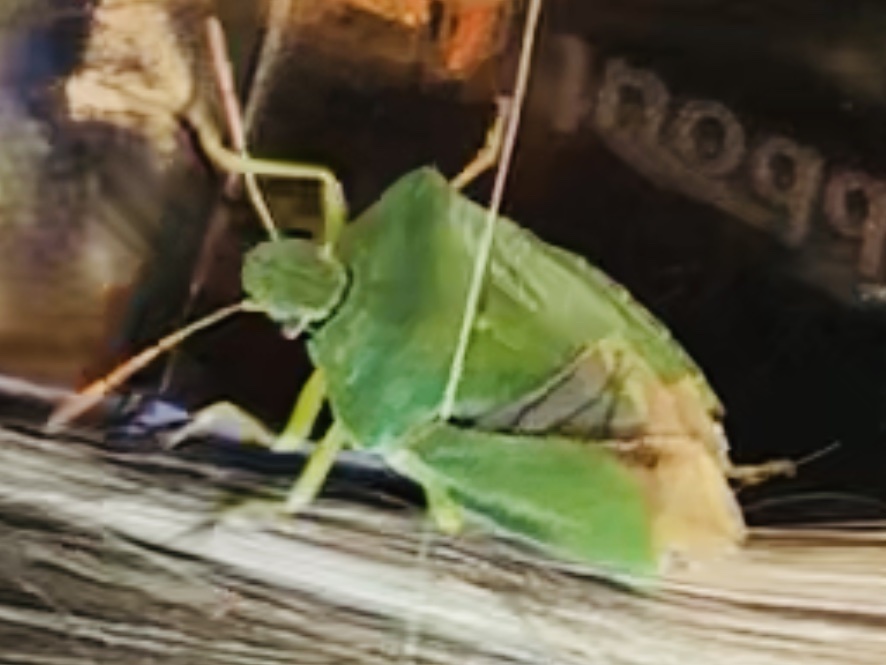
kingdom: Animalia
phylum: Arthropoda
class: Insecta
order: Hemiptera
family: Pentatomidae
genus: Palomena
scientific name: Palomena prasina
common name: Green shieldbug
